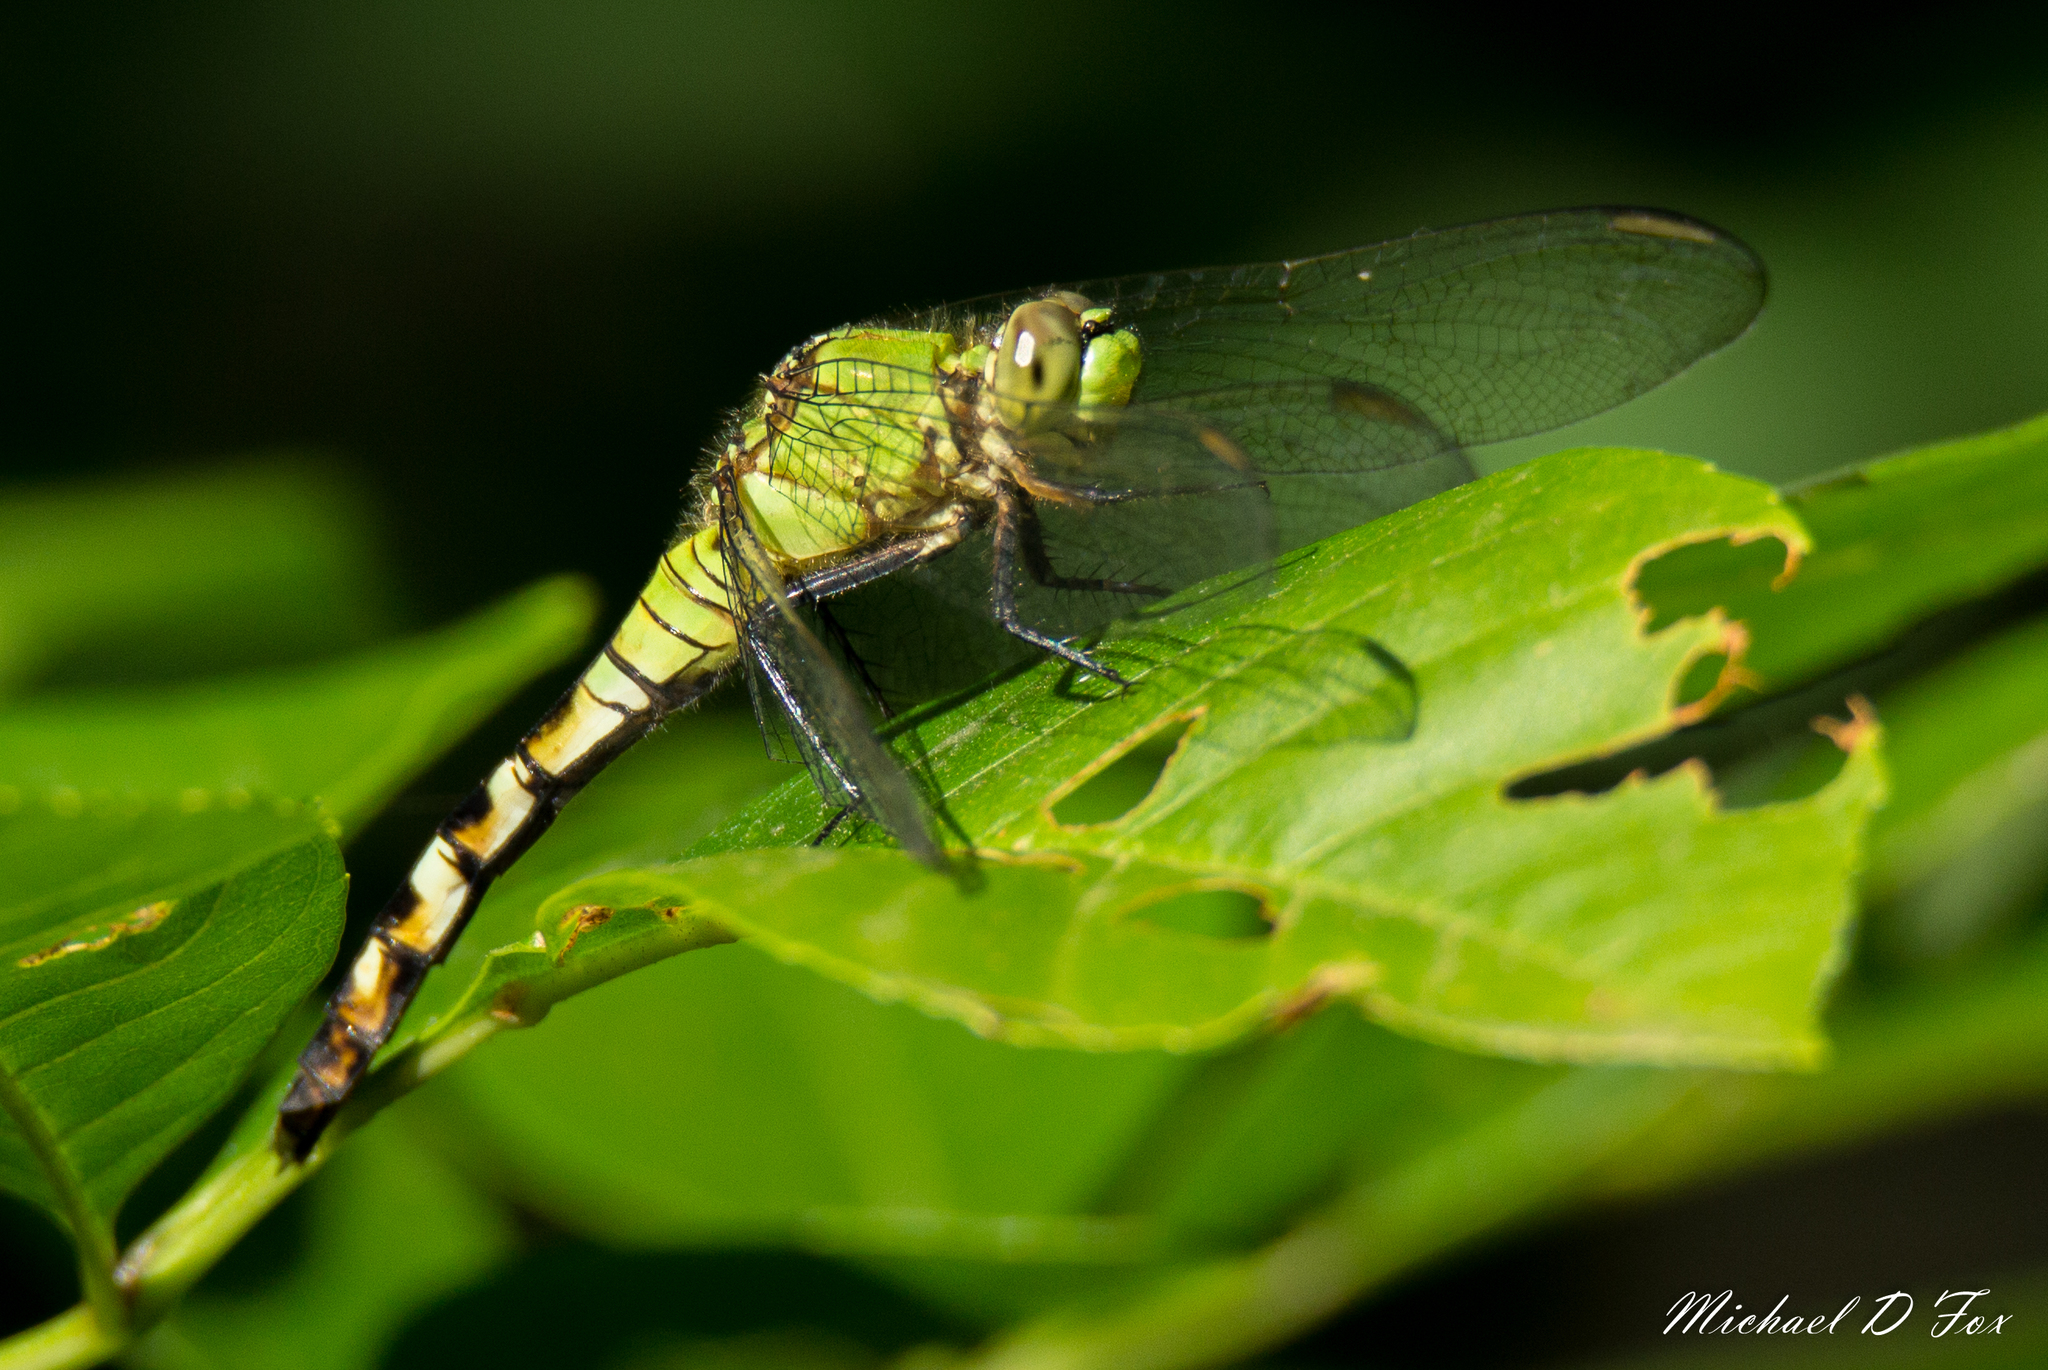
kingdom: Animalia
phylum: Arthropoda
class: Insecta
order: Odonata
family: Libellulidae
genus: Erythemis
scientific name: Erythemis simplicicollis
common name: Eastern pondhawk
